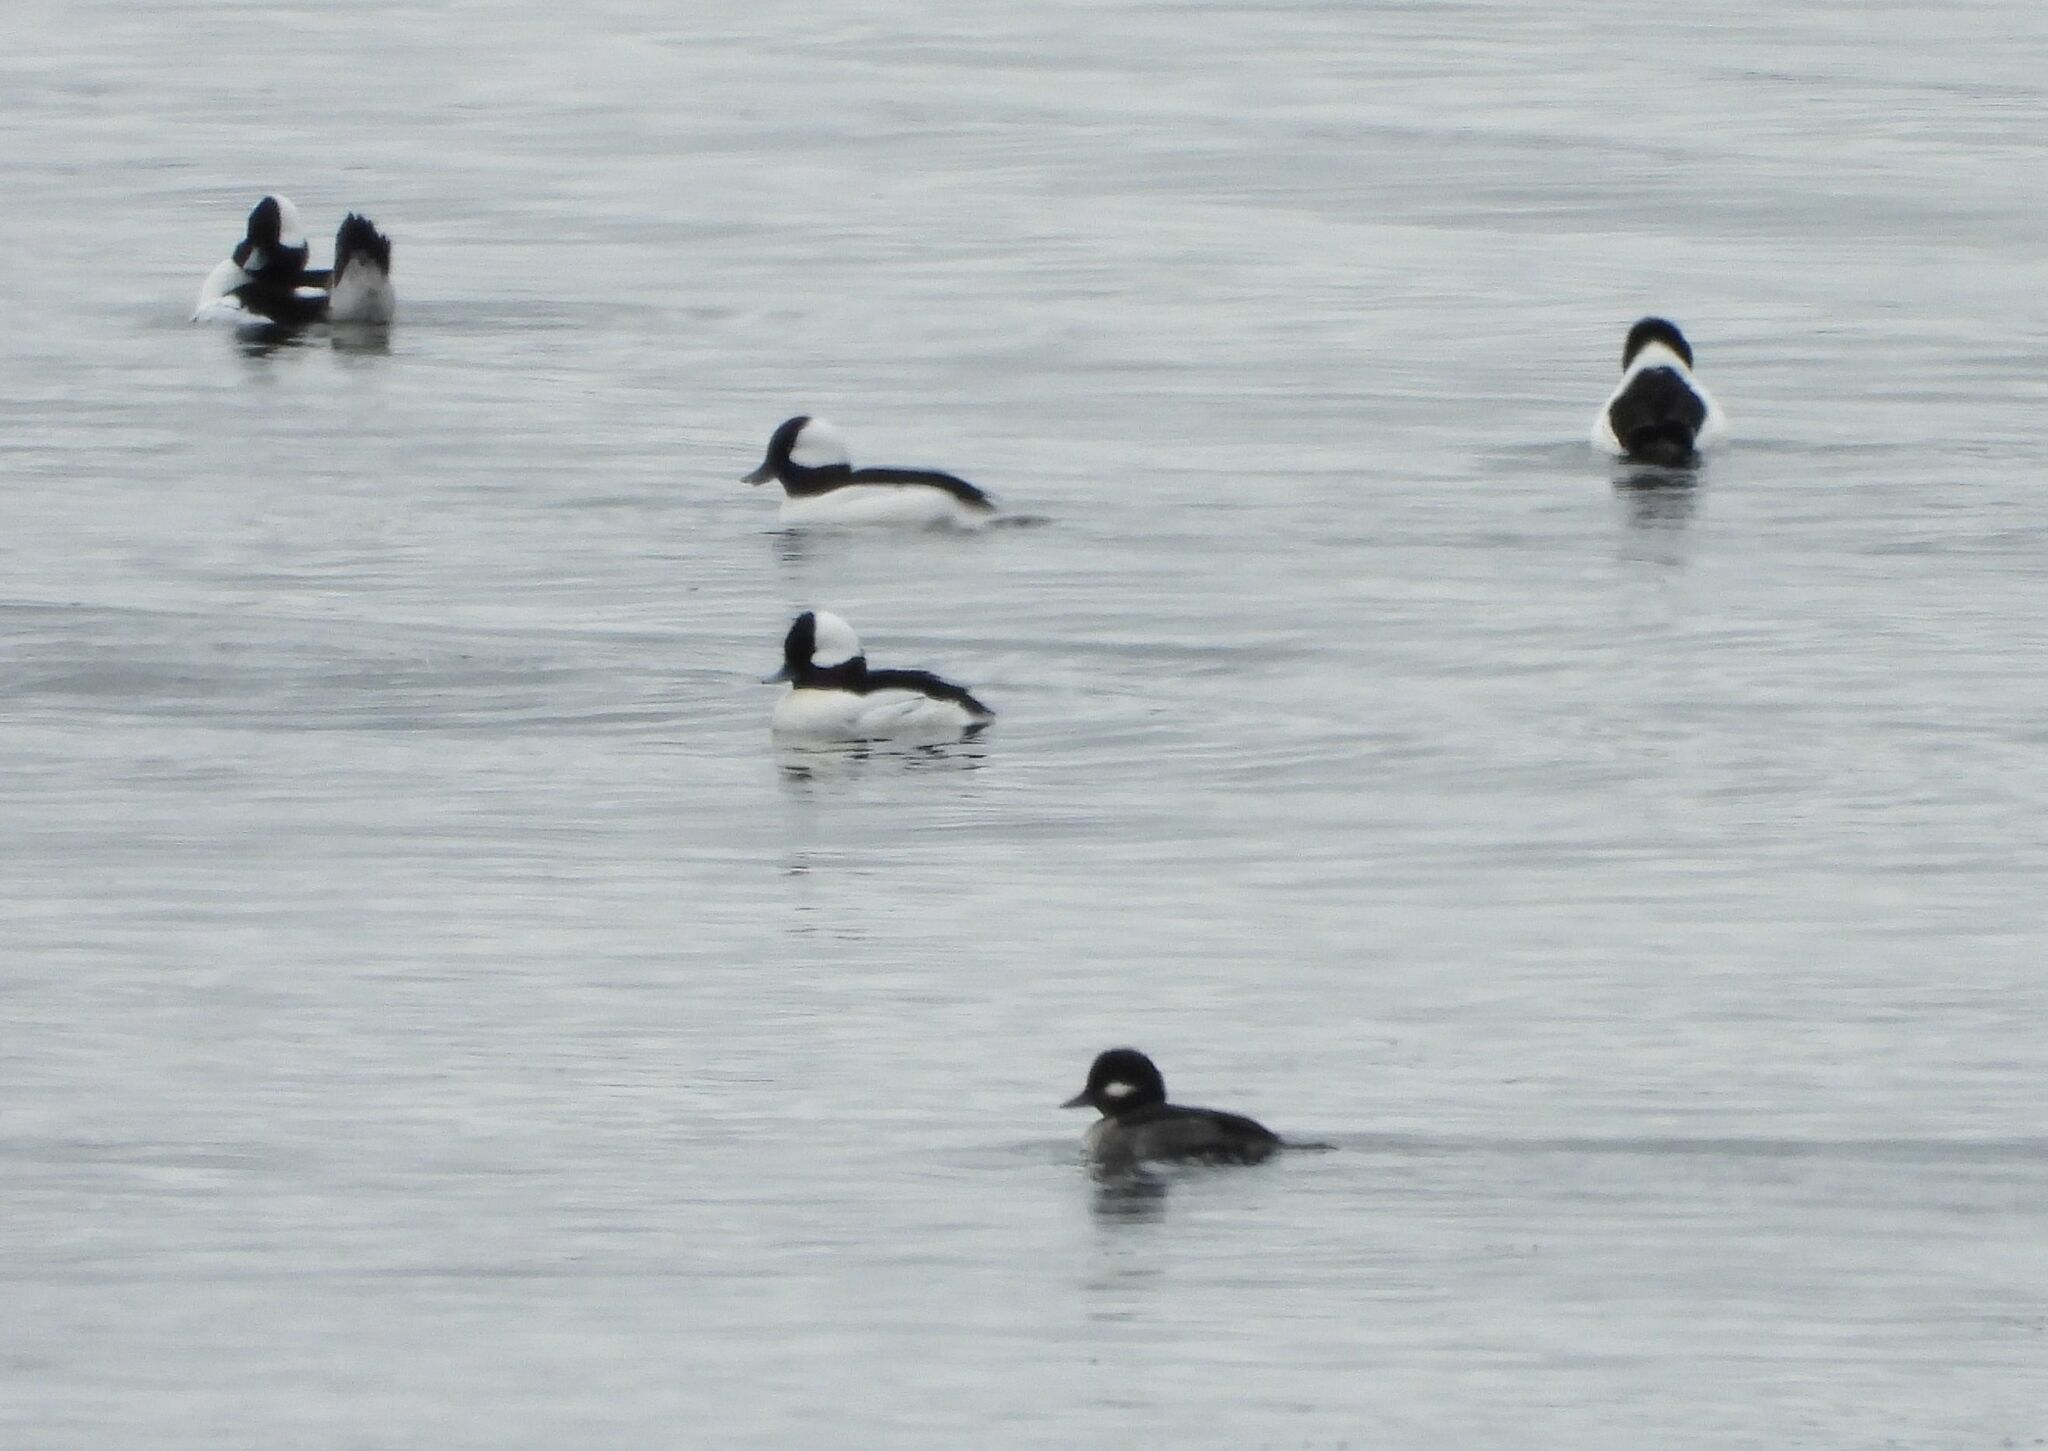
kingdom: Animalia
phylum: Chordata
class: Aves
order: Anseriformes
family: Anatidae
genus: Bucephala
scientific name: Bucephala albeola
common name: Bufflehead
